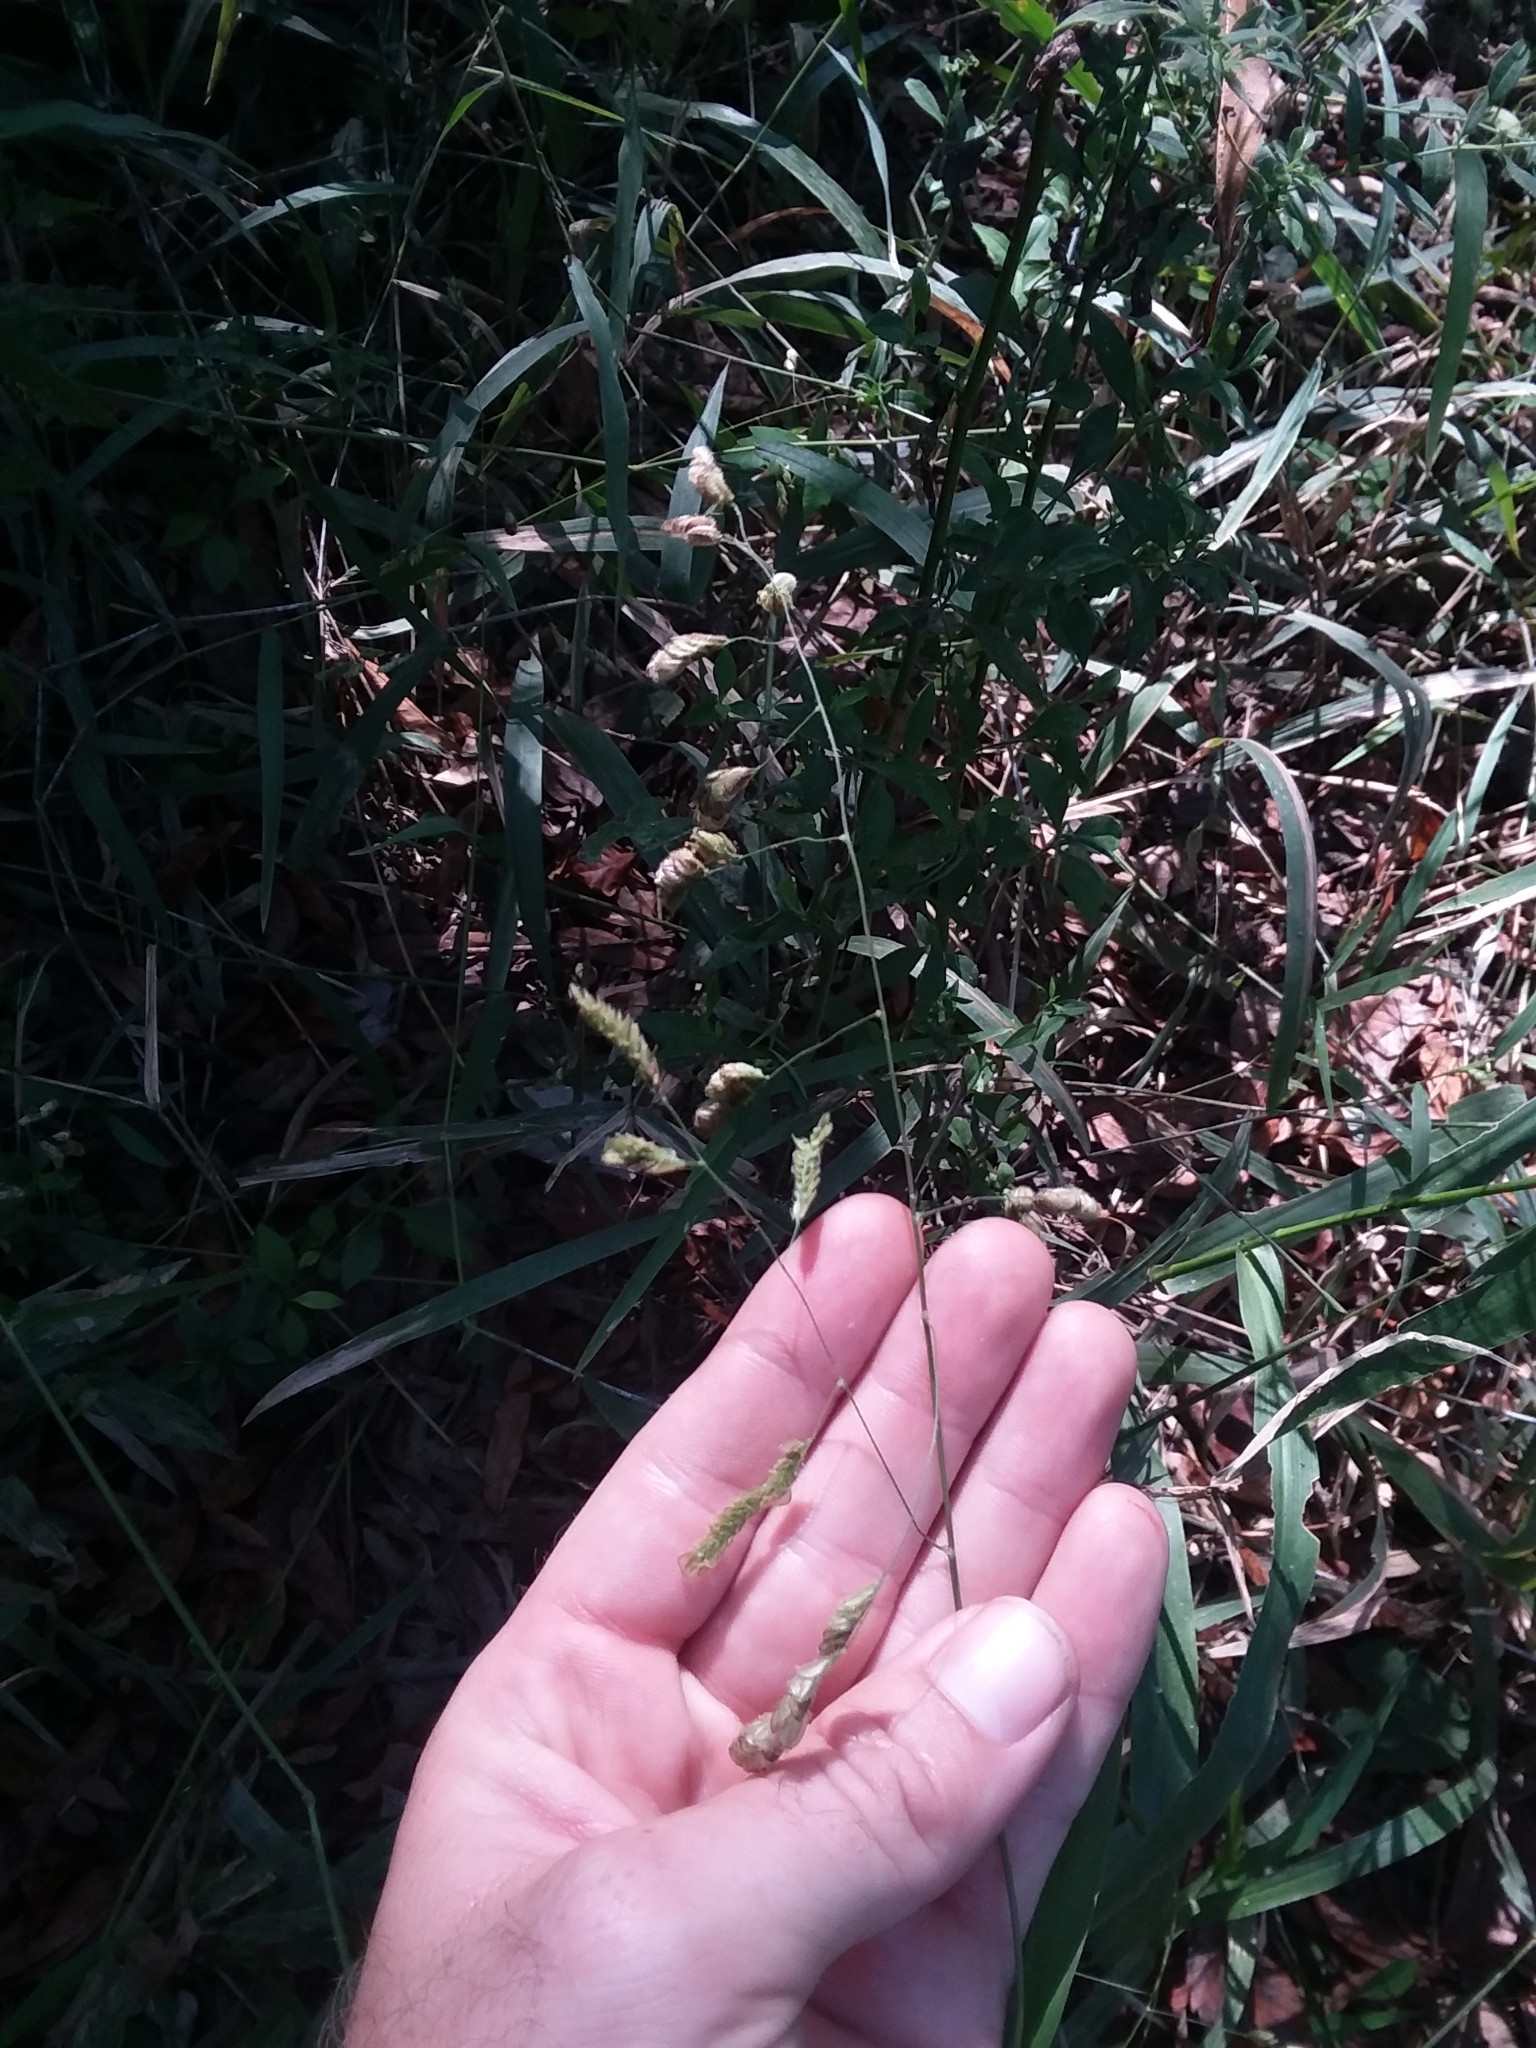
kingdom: Plantae
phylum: Tracheophyta
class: Liliopsida
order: Poales
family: Poaceae
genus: Leersia
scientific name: Leersia lenticularis
